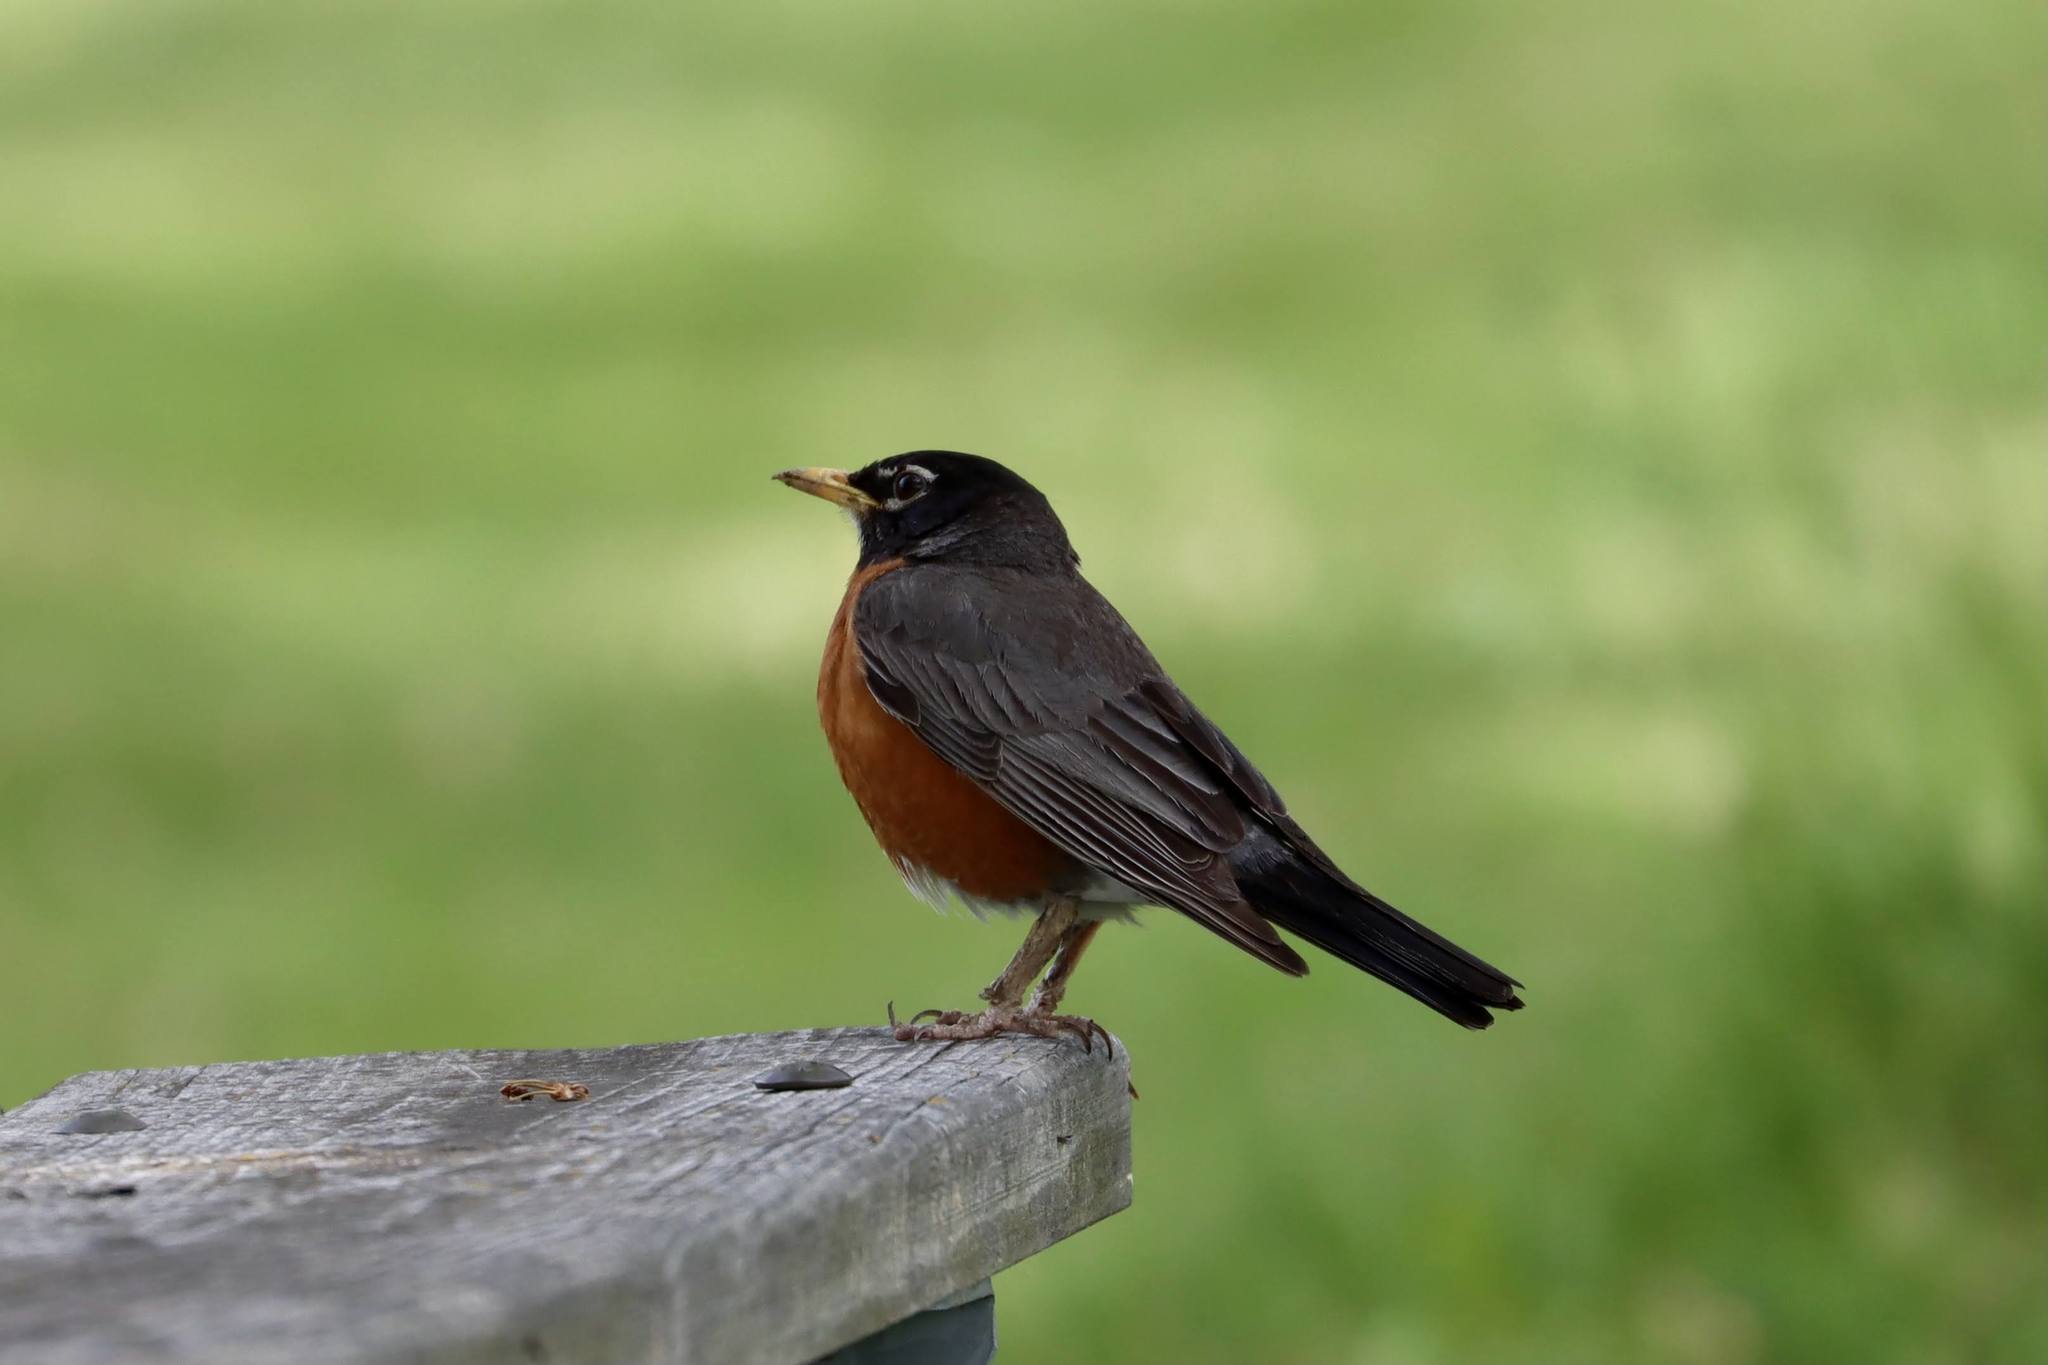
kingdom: Animalia
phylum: Chordata
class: Aves
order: Passeriformes
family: Turdidae
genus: Turdus
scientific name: Turdus migratorius
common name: American robin
